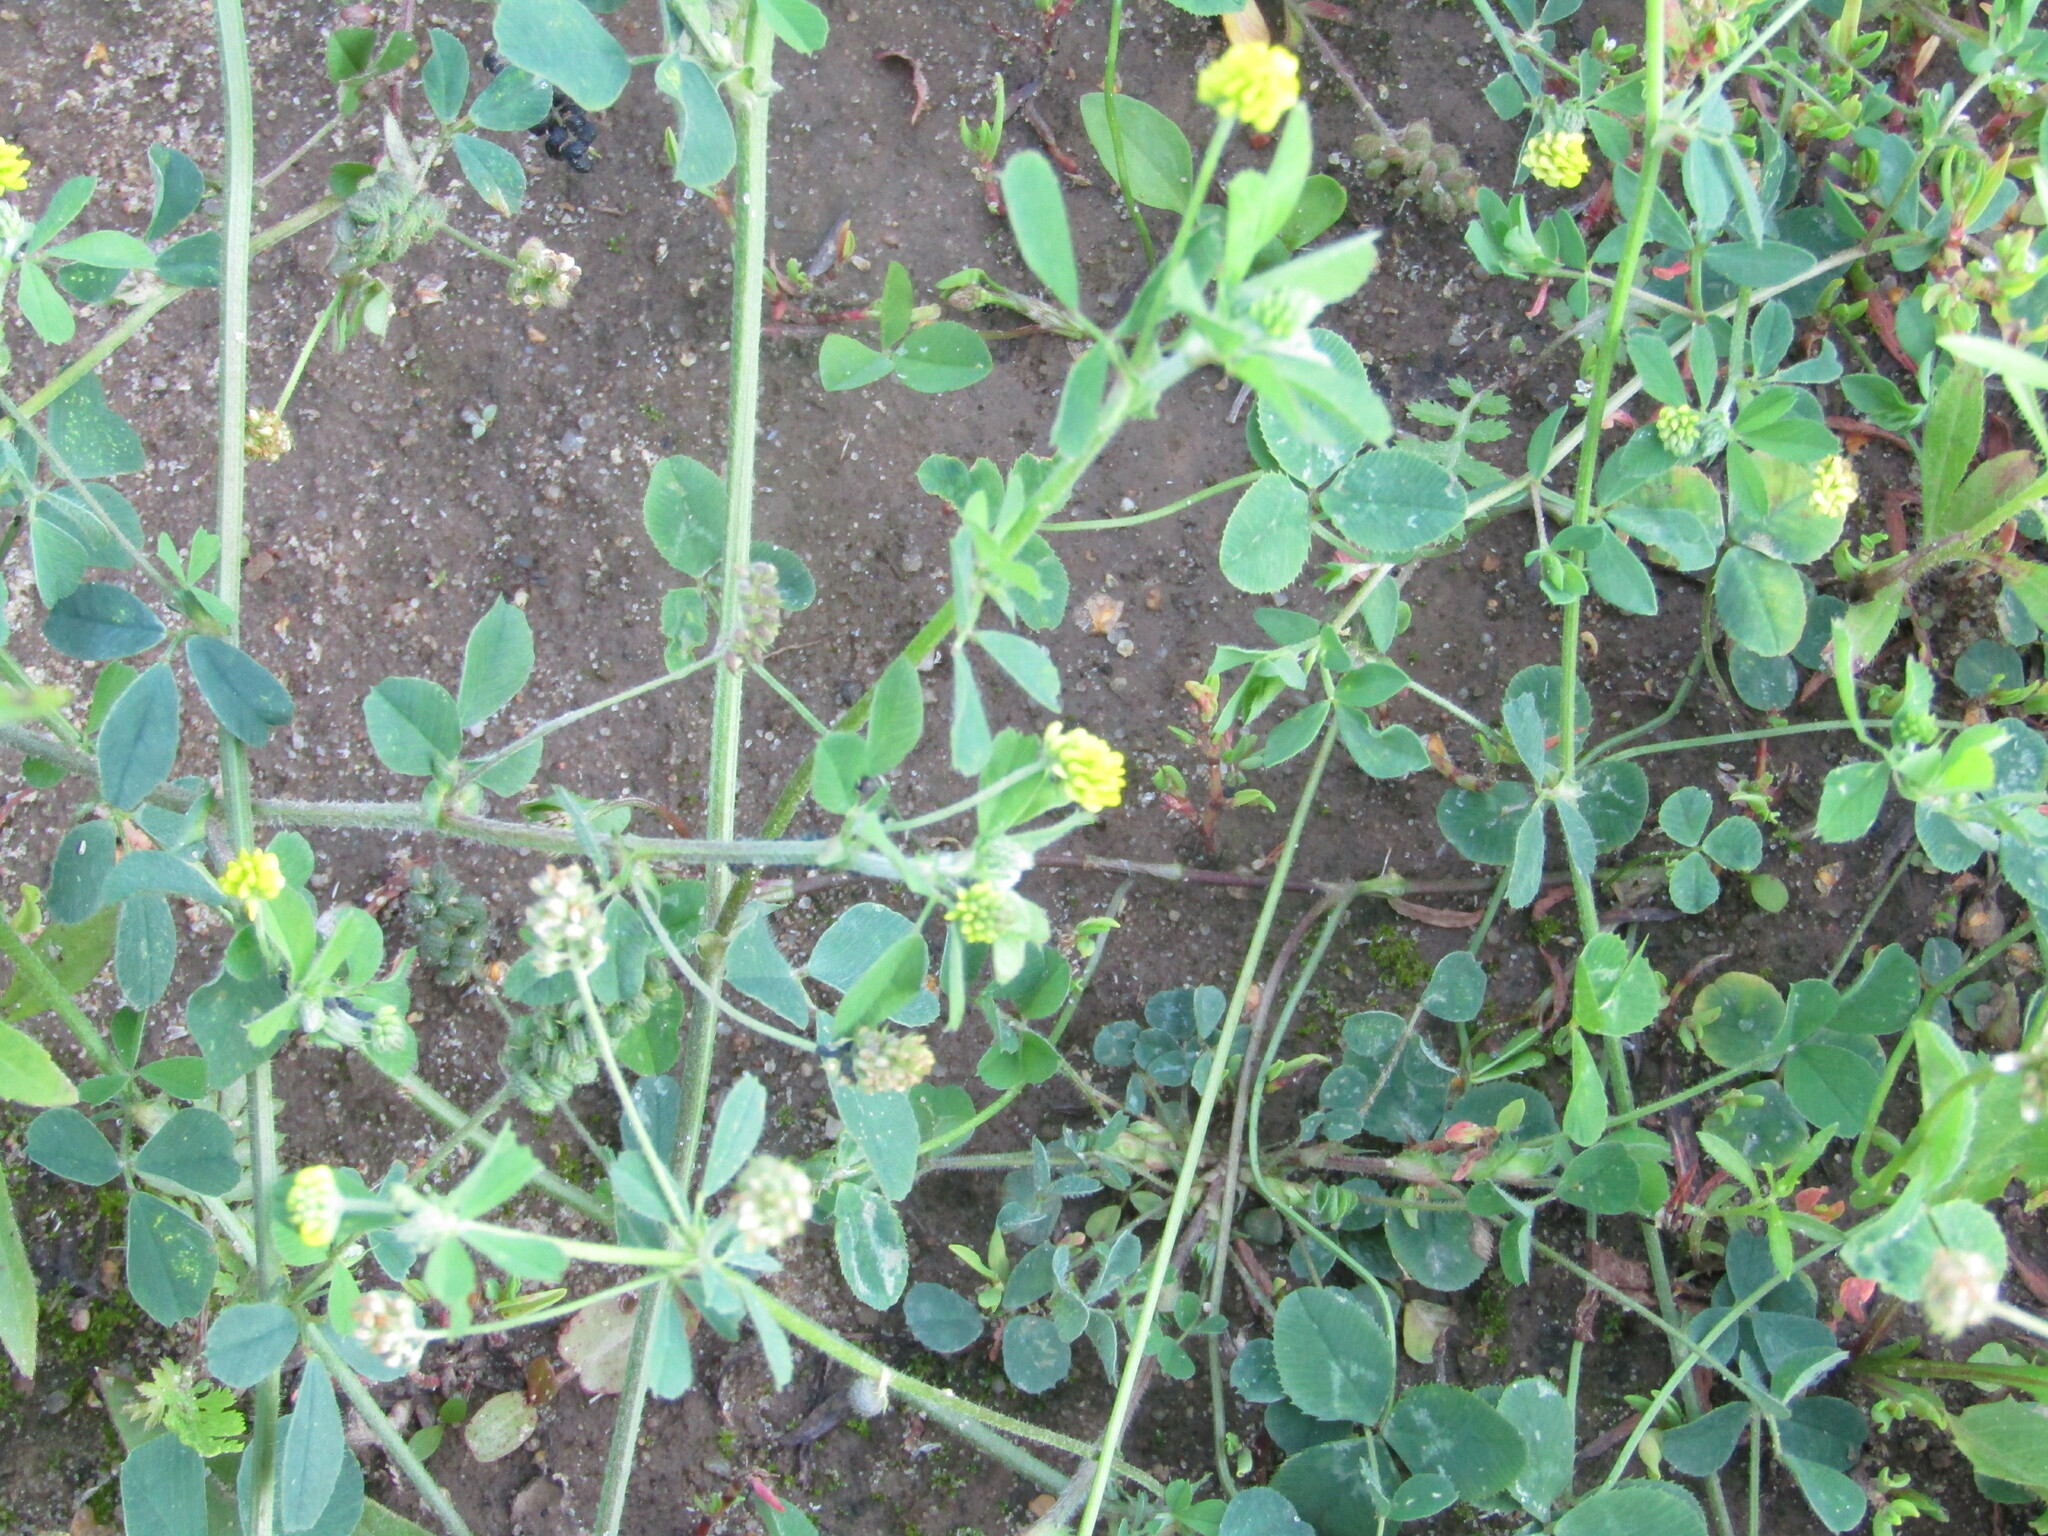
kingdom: Plantae
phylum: Tracheophyta
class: Magnoliopsida
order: Fabales
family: Fabaceae
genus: Medicago
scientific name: Medicago lupulina
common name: Black medick
